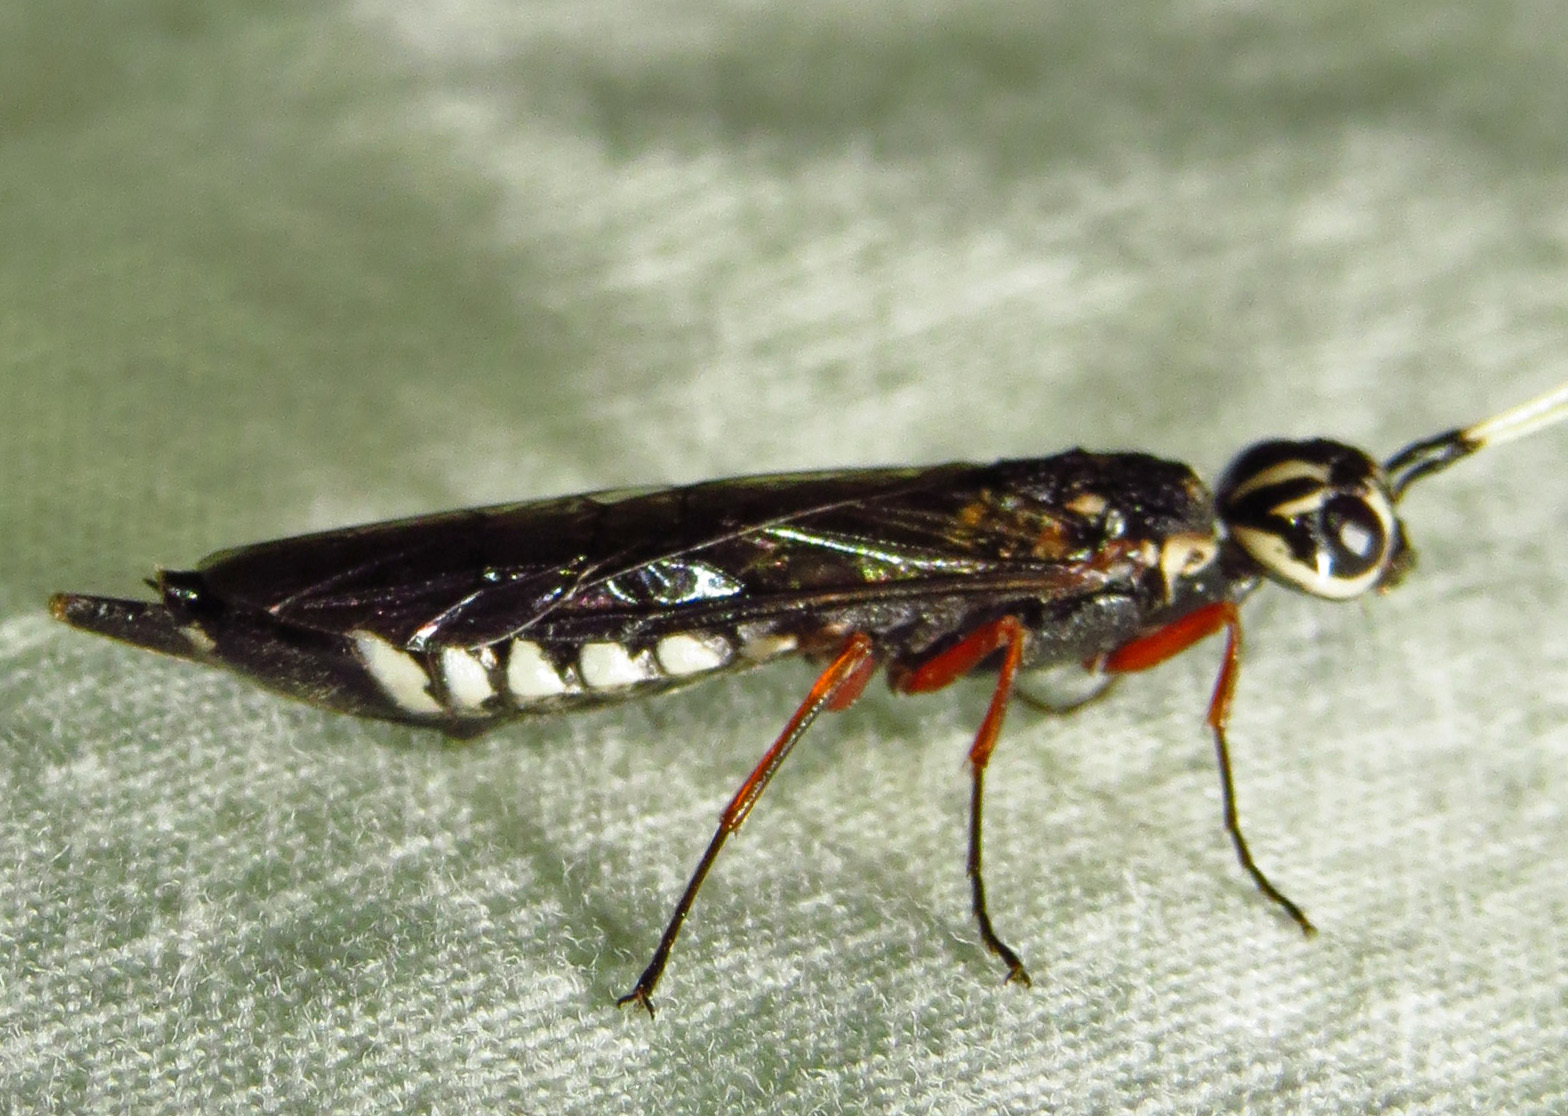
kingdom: Animalia
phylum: Arthropoda
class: Insecta
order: Hymenoptera
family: Xiphydriidae
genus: Xiphydria
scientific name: Xiphydria
